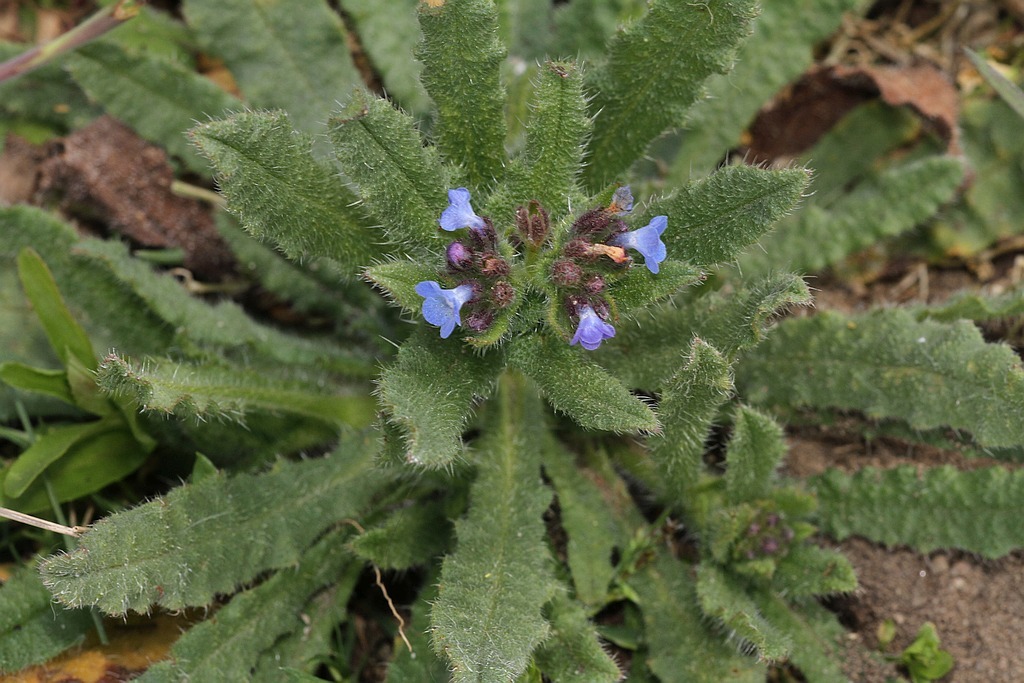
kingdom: Plantae
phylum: Tracheophyta
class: Magnoliopsida
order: Boraginales
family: Boraginaceae
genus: Lycopsis
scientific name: Lycopsis arvensis
